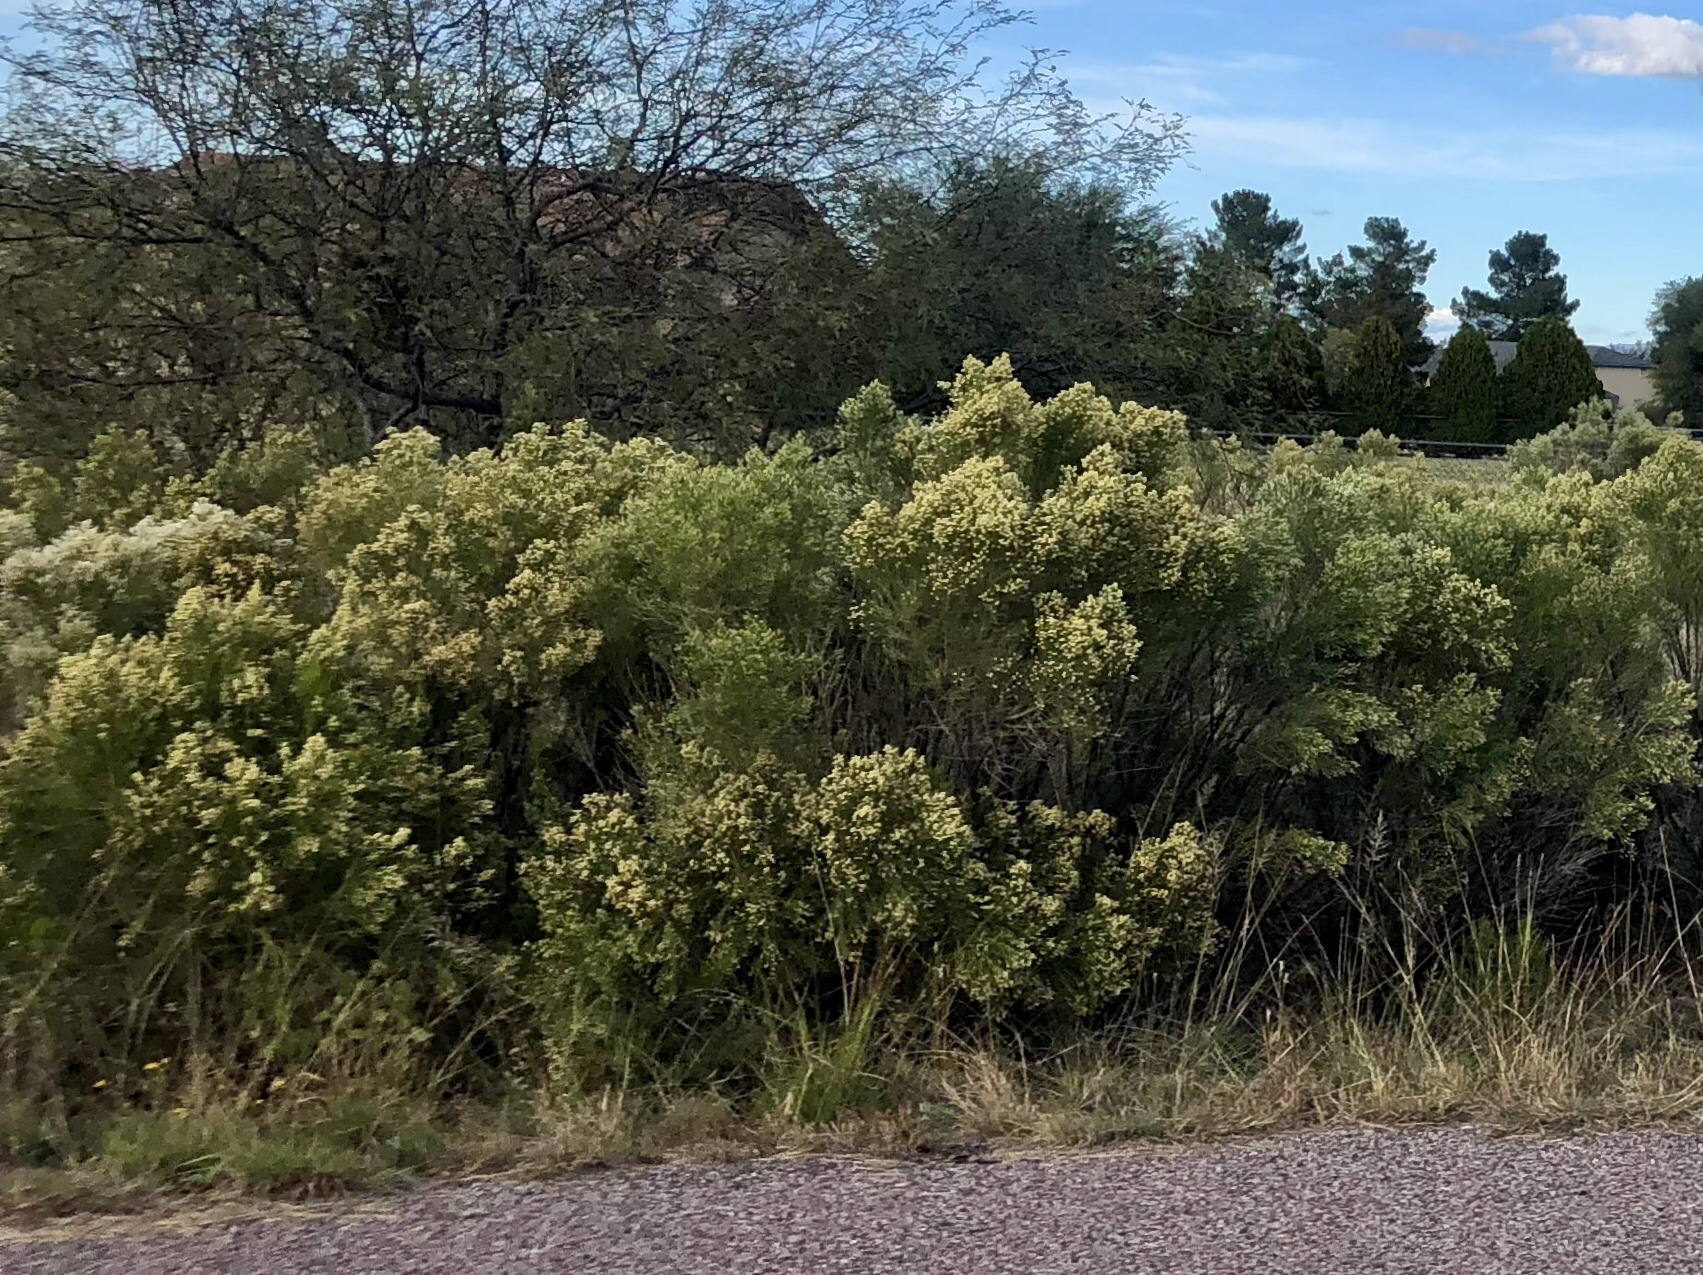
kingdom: Plantae
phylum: Tracheophyta
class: Magnoliopsida
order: Asterales
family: Asteraceae
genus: Baccharis
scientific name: Baccharis sarothroides
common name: Desert-broom
